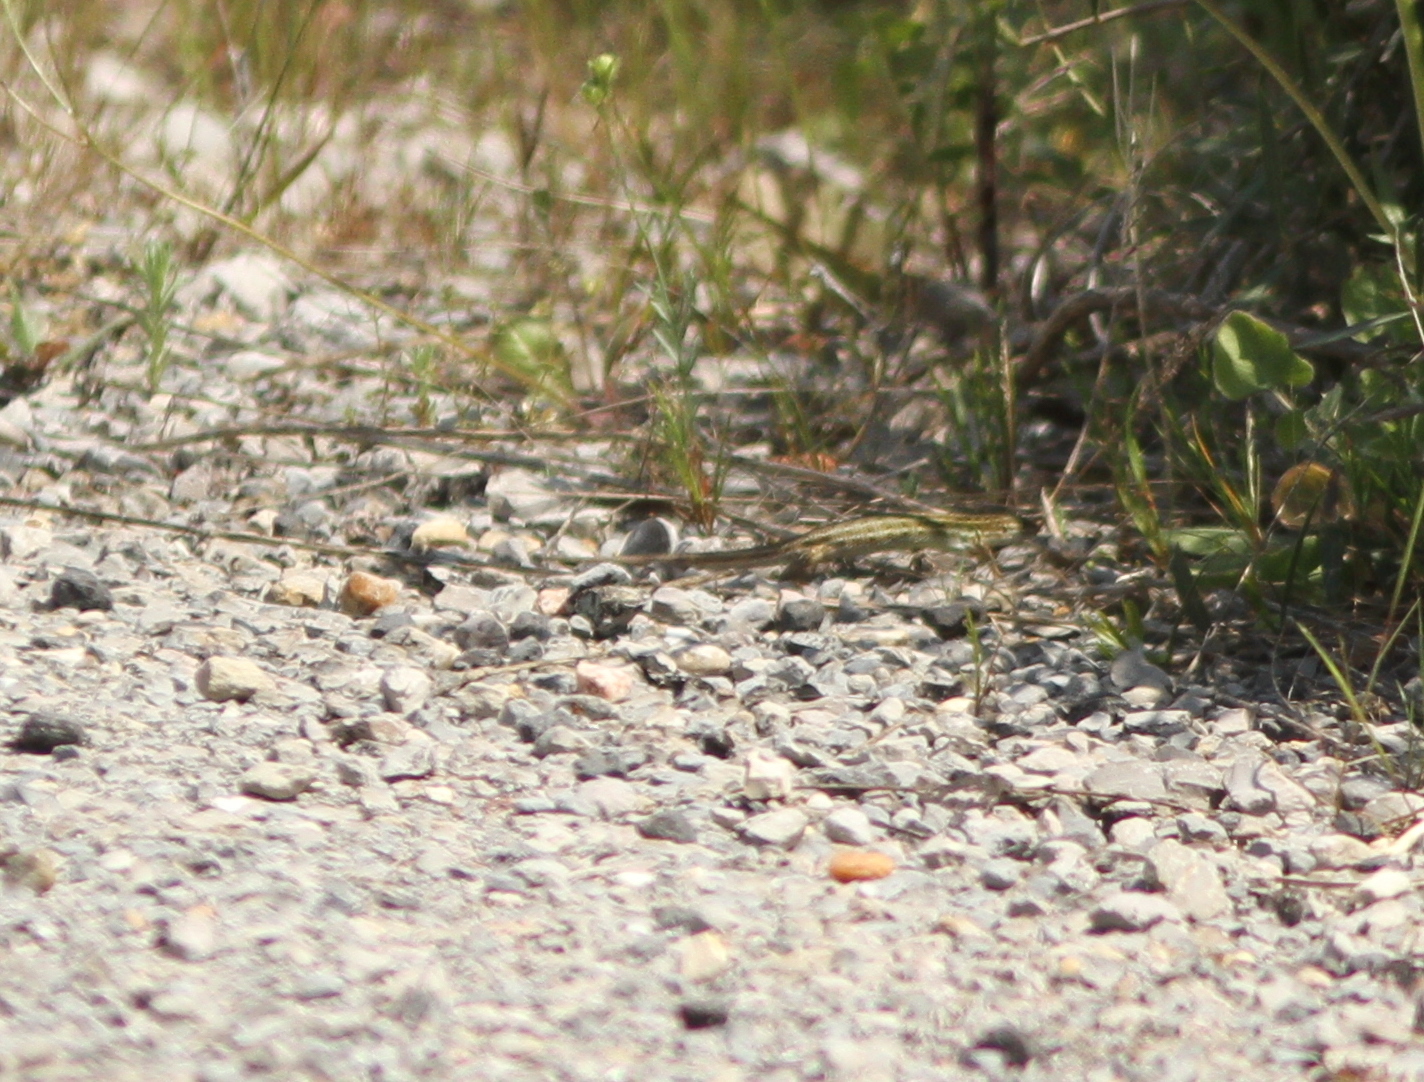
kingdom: Animalia
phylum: Chordata
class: Squamata
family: Lacertidae
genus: Psammodromus
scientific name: Psammodromus edwarsianus
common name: East iberian psammodromus
